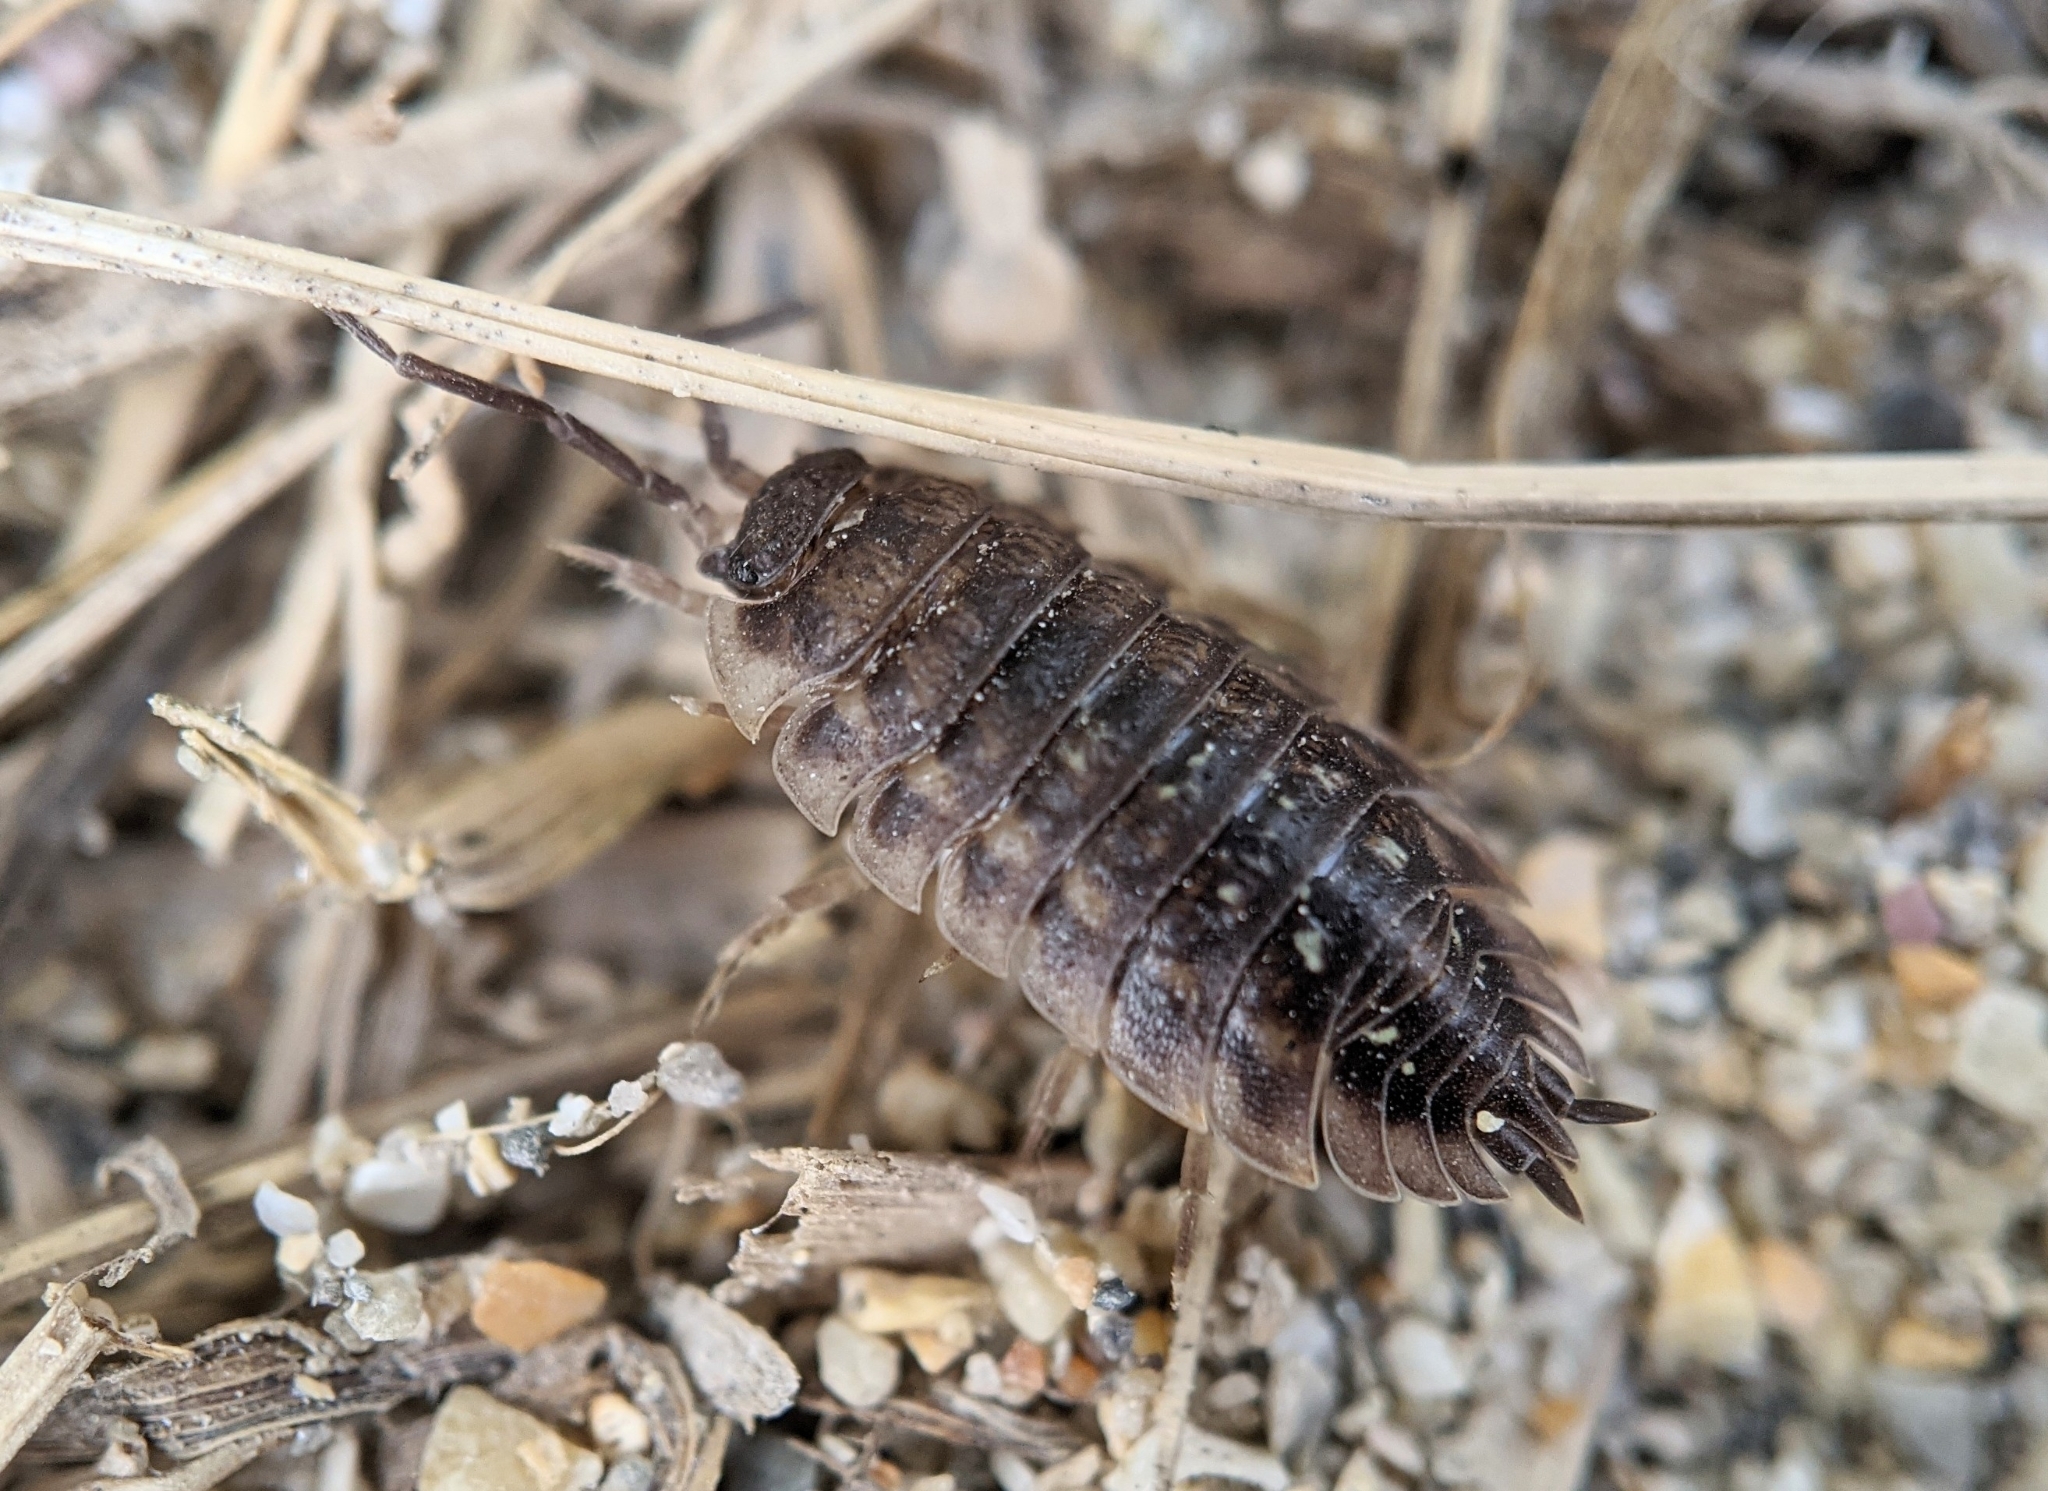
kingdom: Animalia
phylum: Arthropoda
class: Malacostraca
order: Isopoda
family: Oniscidae
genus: Oniscus
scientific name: Oniscus asellus
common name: Common shiny woodlouse
